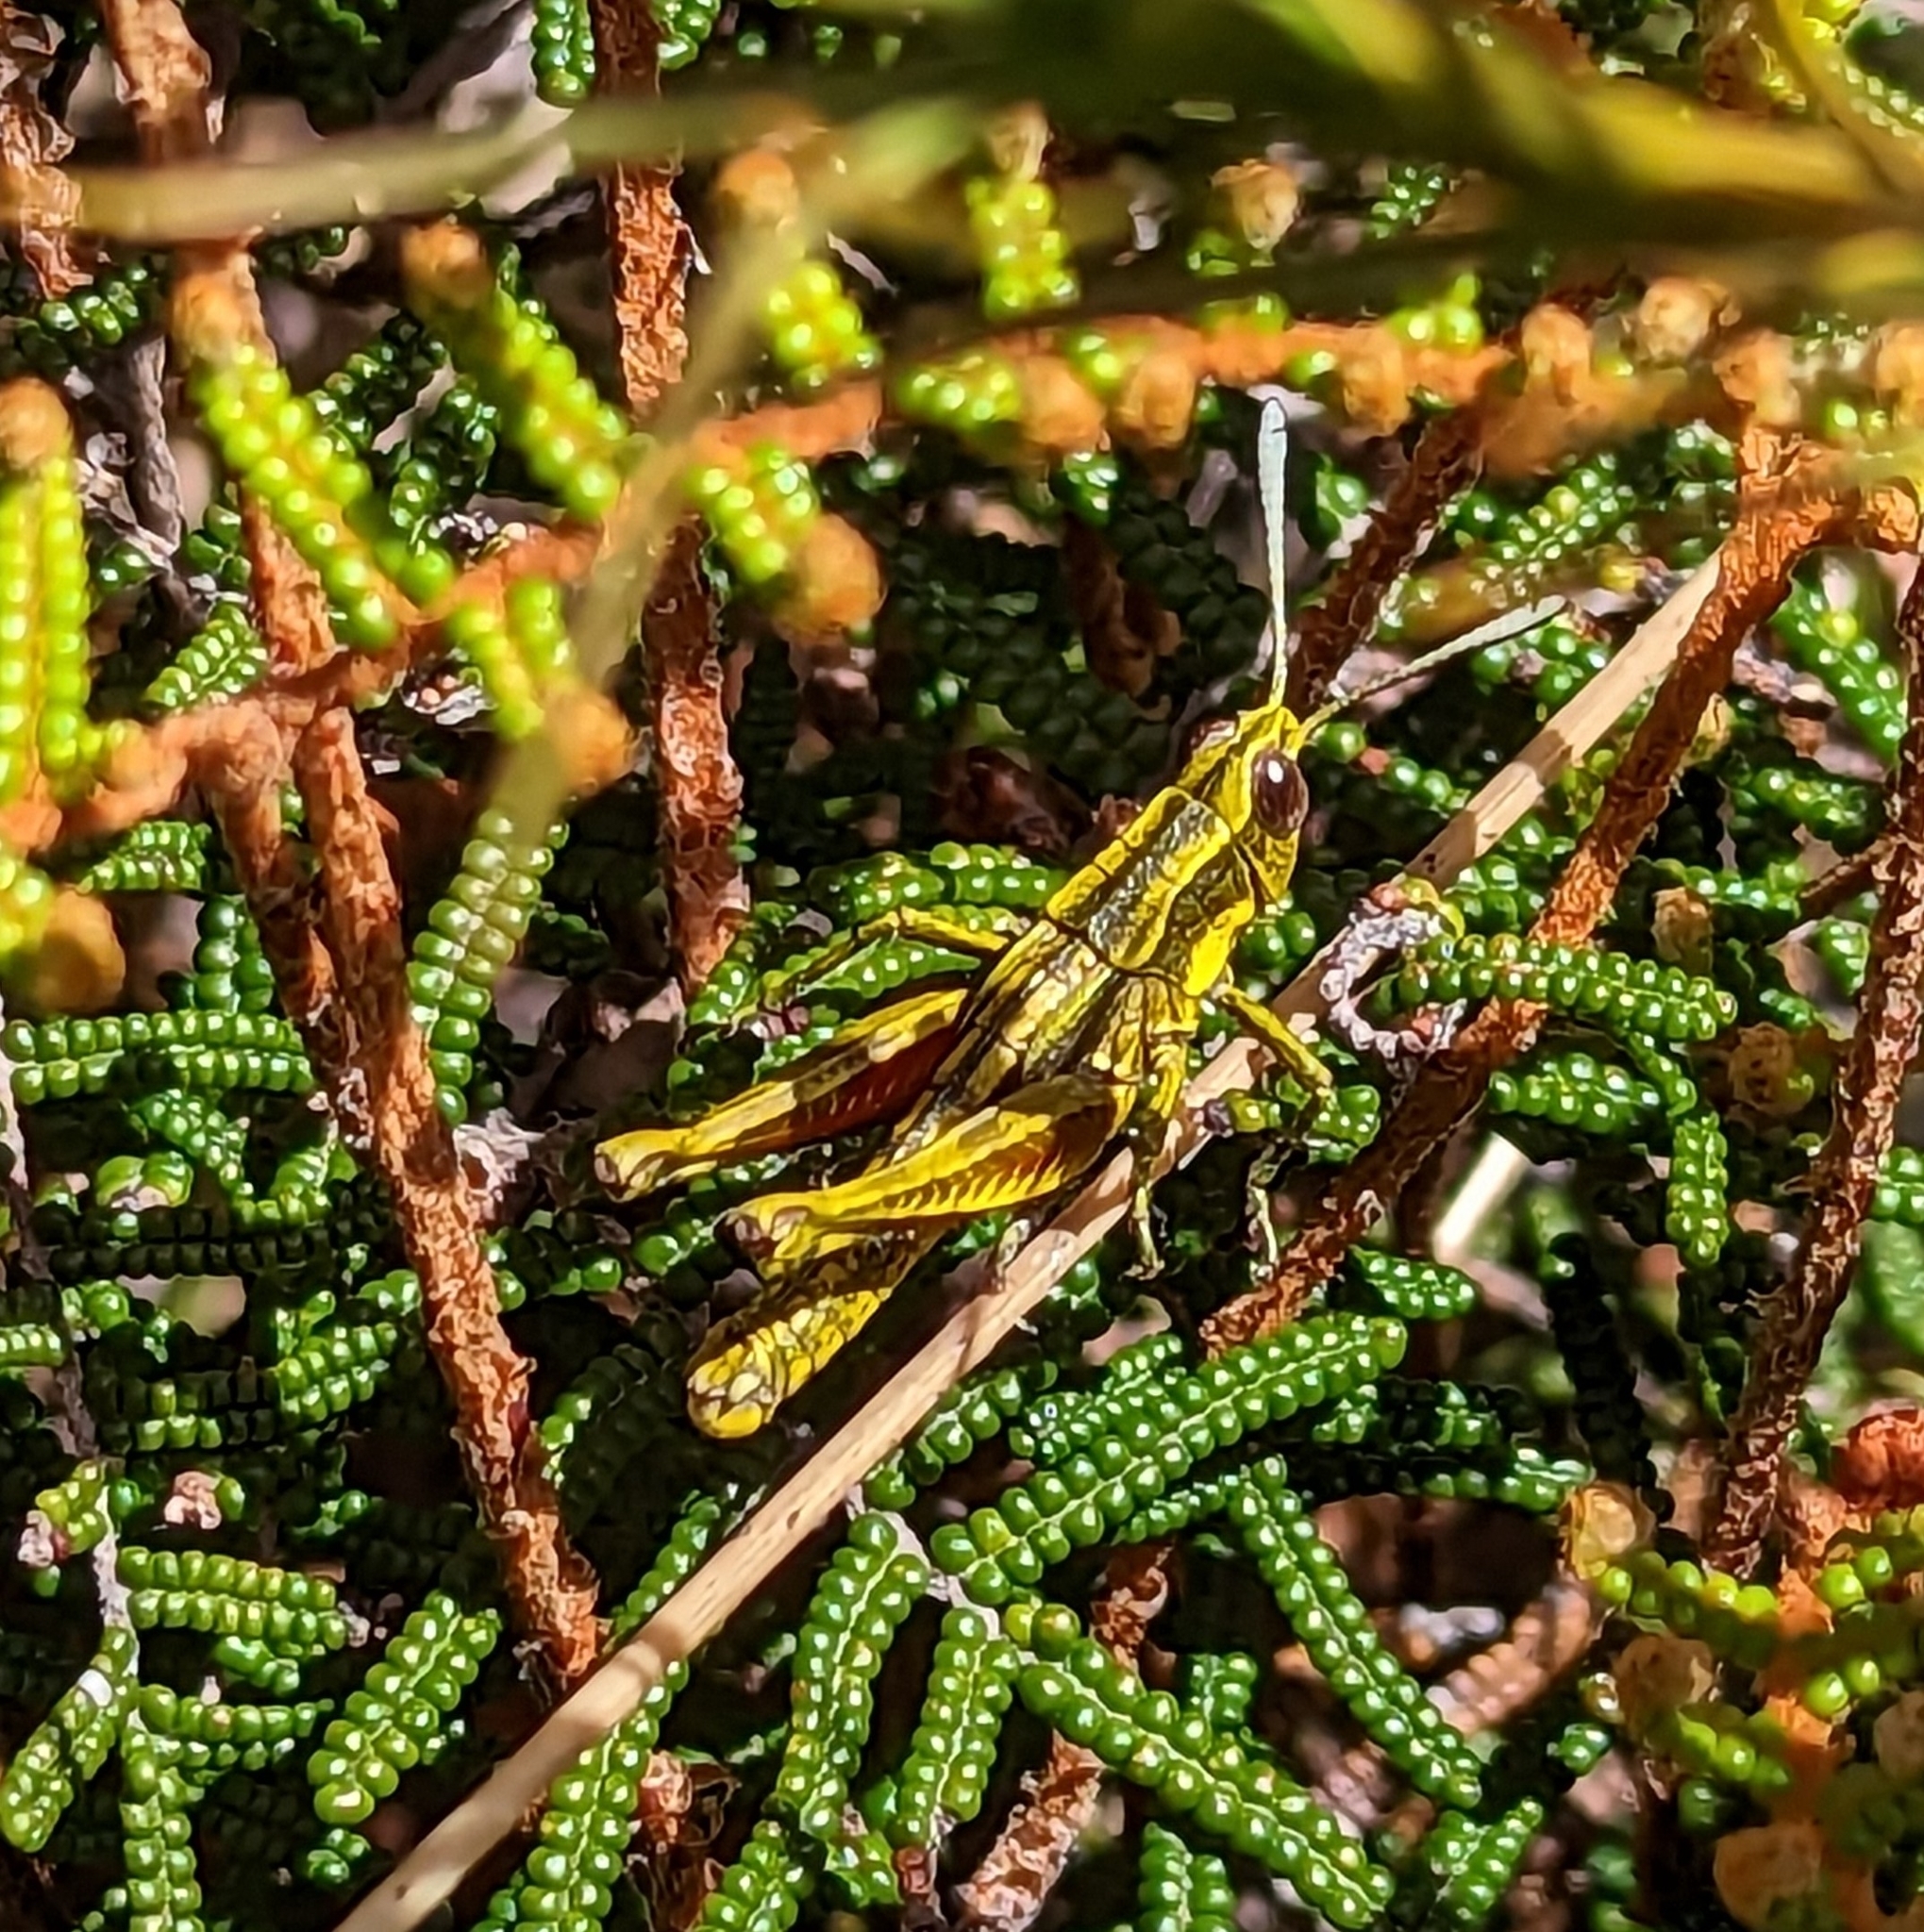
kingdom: Animalia
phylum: Arthropoda
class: Insecta
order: Orthoptera
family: Acrididae
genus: Sigaus
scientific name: Sigaus piliferus
